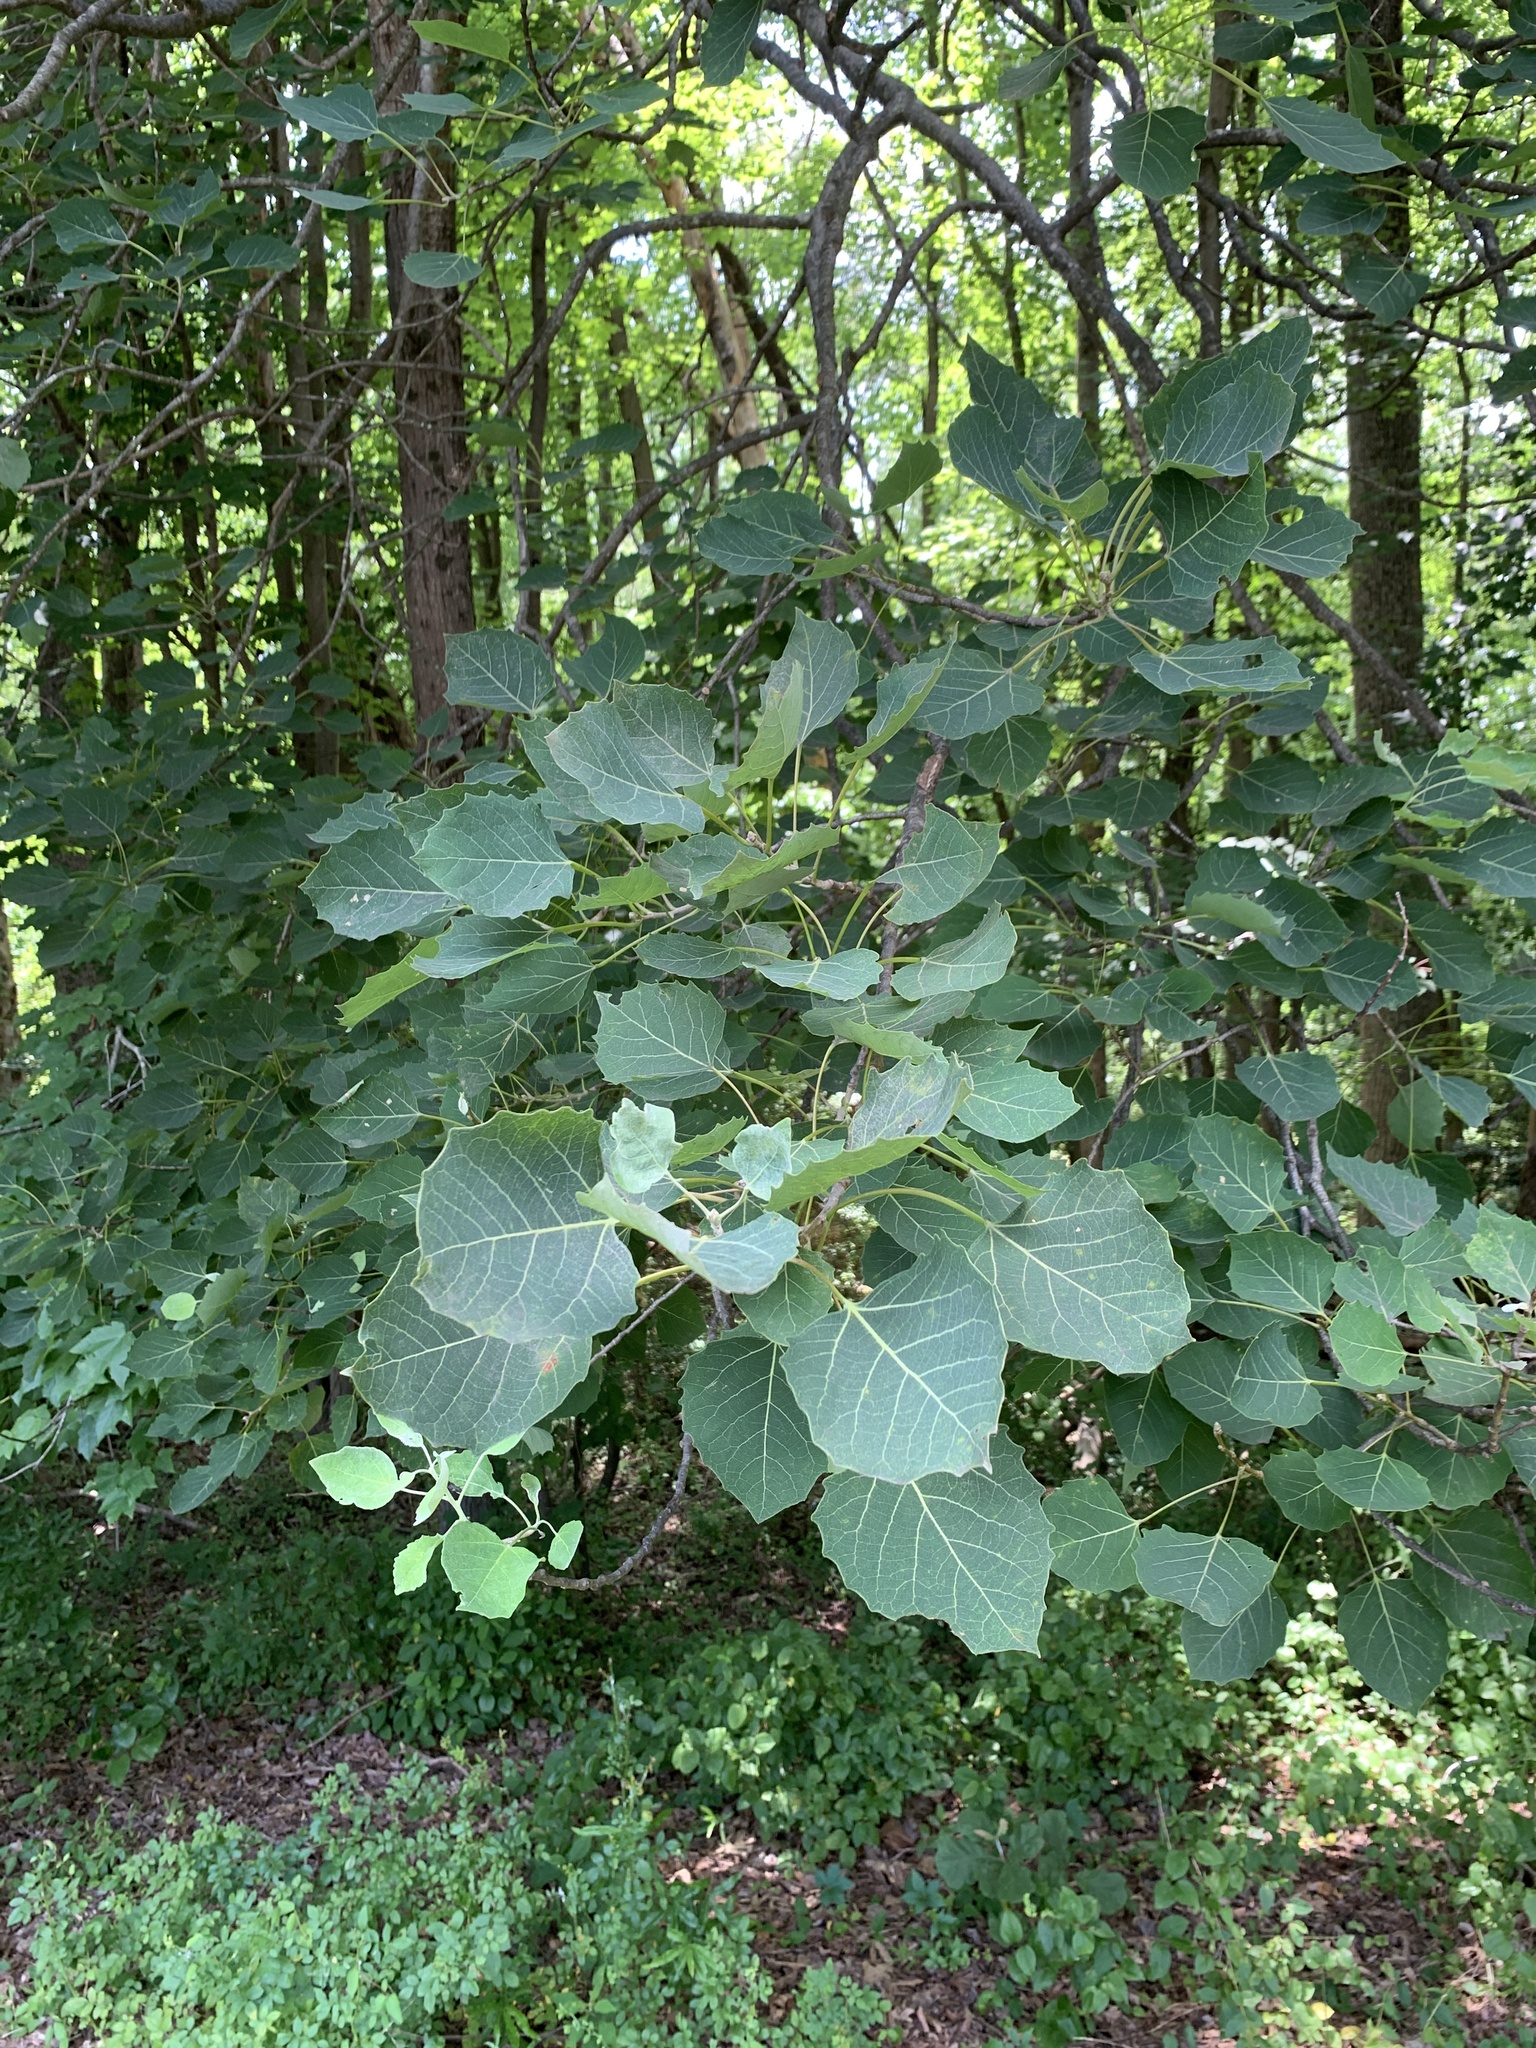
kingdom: Plantae
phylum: Tracheophyta
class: Magnoliopsida
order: Malpighiales
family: Salicaceae
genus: Populus
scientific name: Populus grandidentata
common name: Bigtooth aspen
